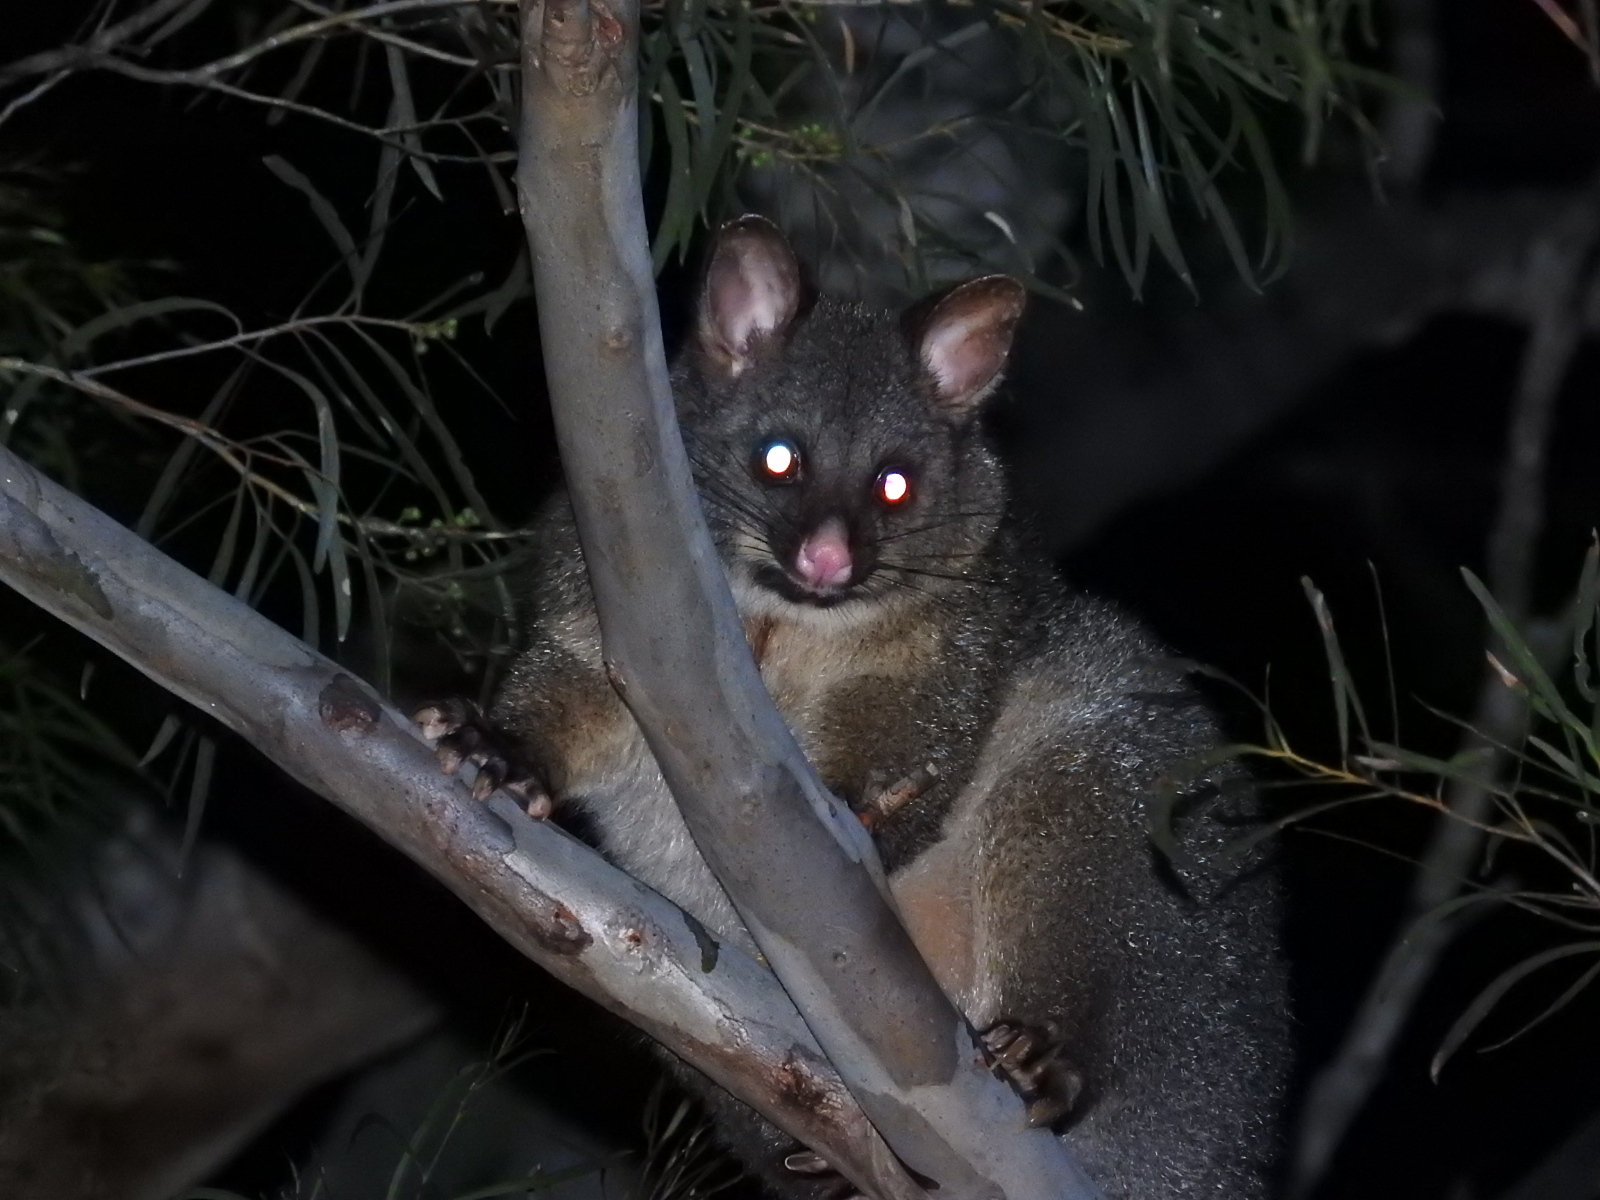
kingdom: Animalia
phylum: Chordata
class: Mammalia
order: Diprotodontia
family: Phalangeridae
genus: Trichosurus
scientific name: Trichosurus vulpecula
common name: Common brushtail
